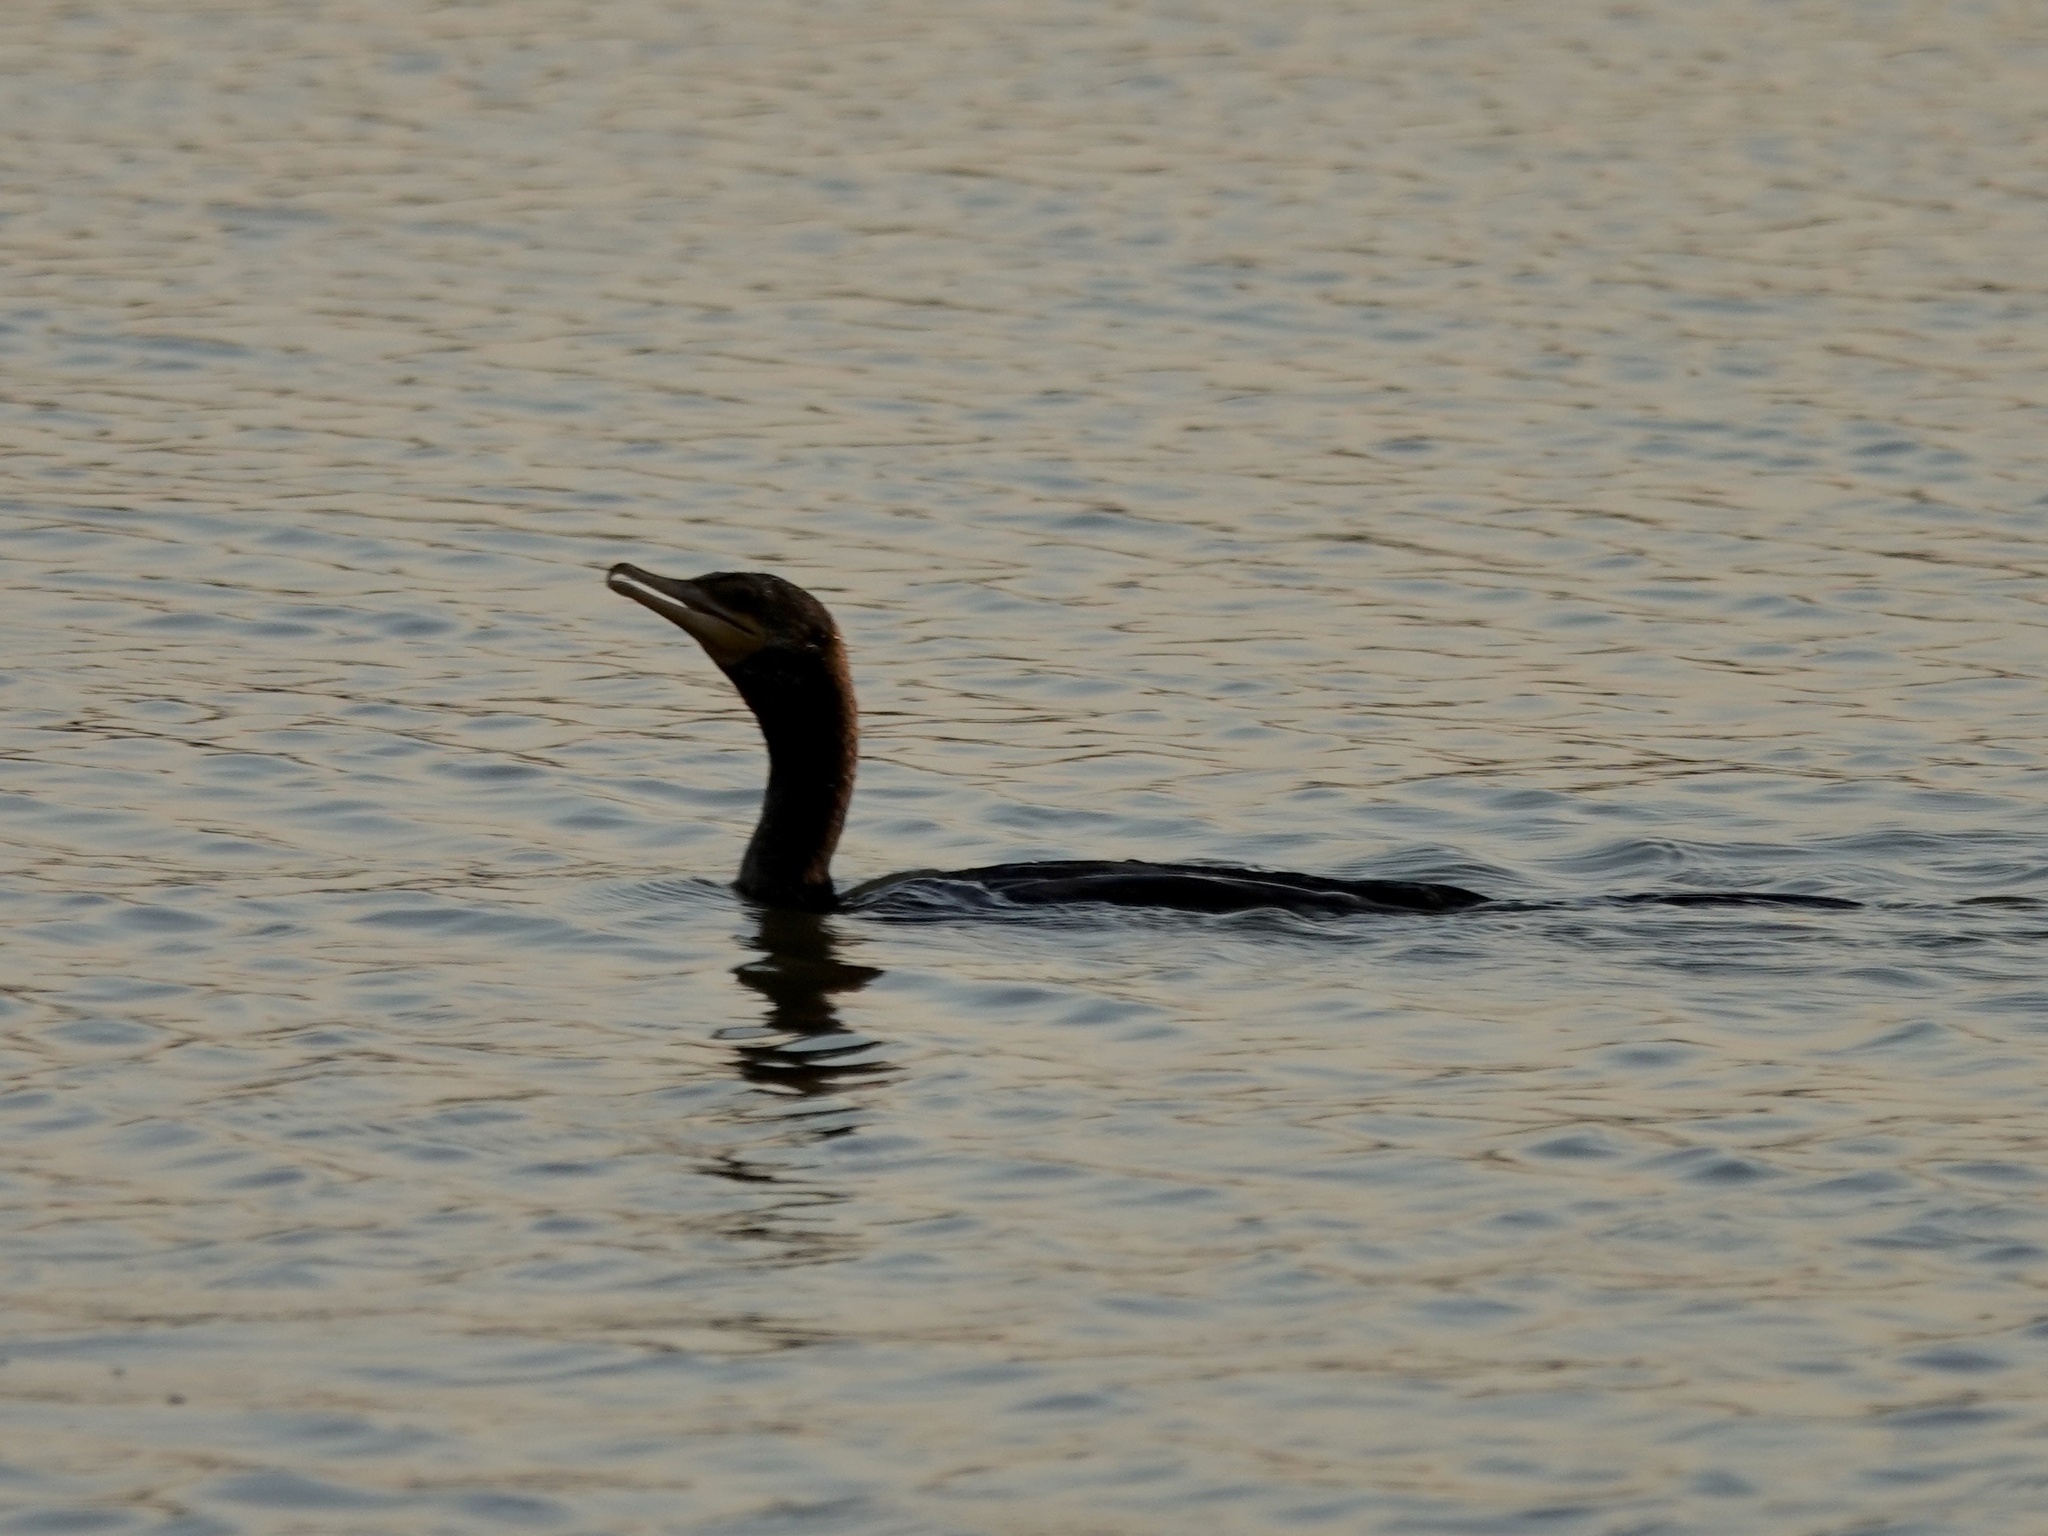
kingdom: Animalia
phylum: Chordata
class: Aves
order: Suliformes
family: Phalacrocoracidae
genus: Phalacrocorax
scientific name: Phalacrocorax brasilianus
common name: Neotropic cormorant
